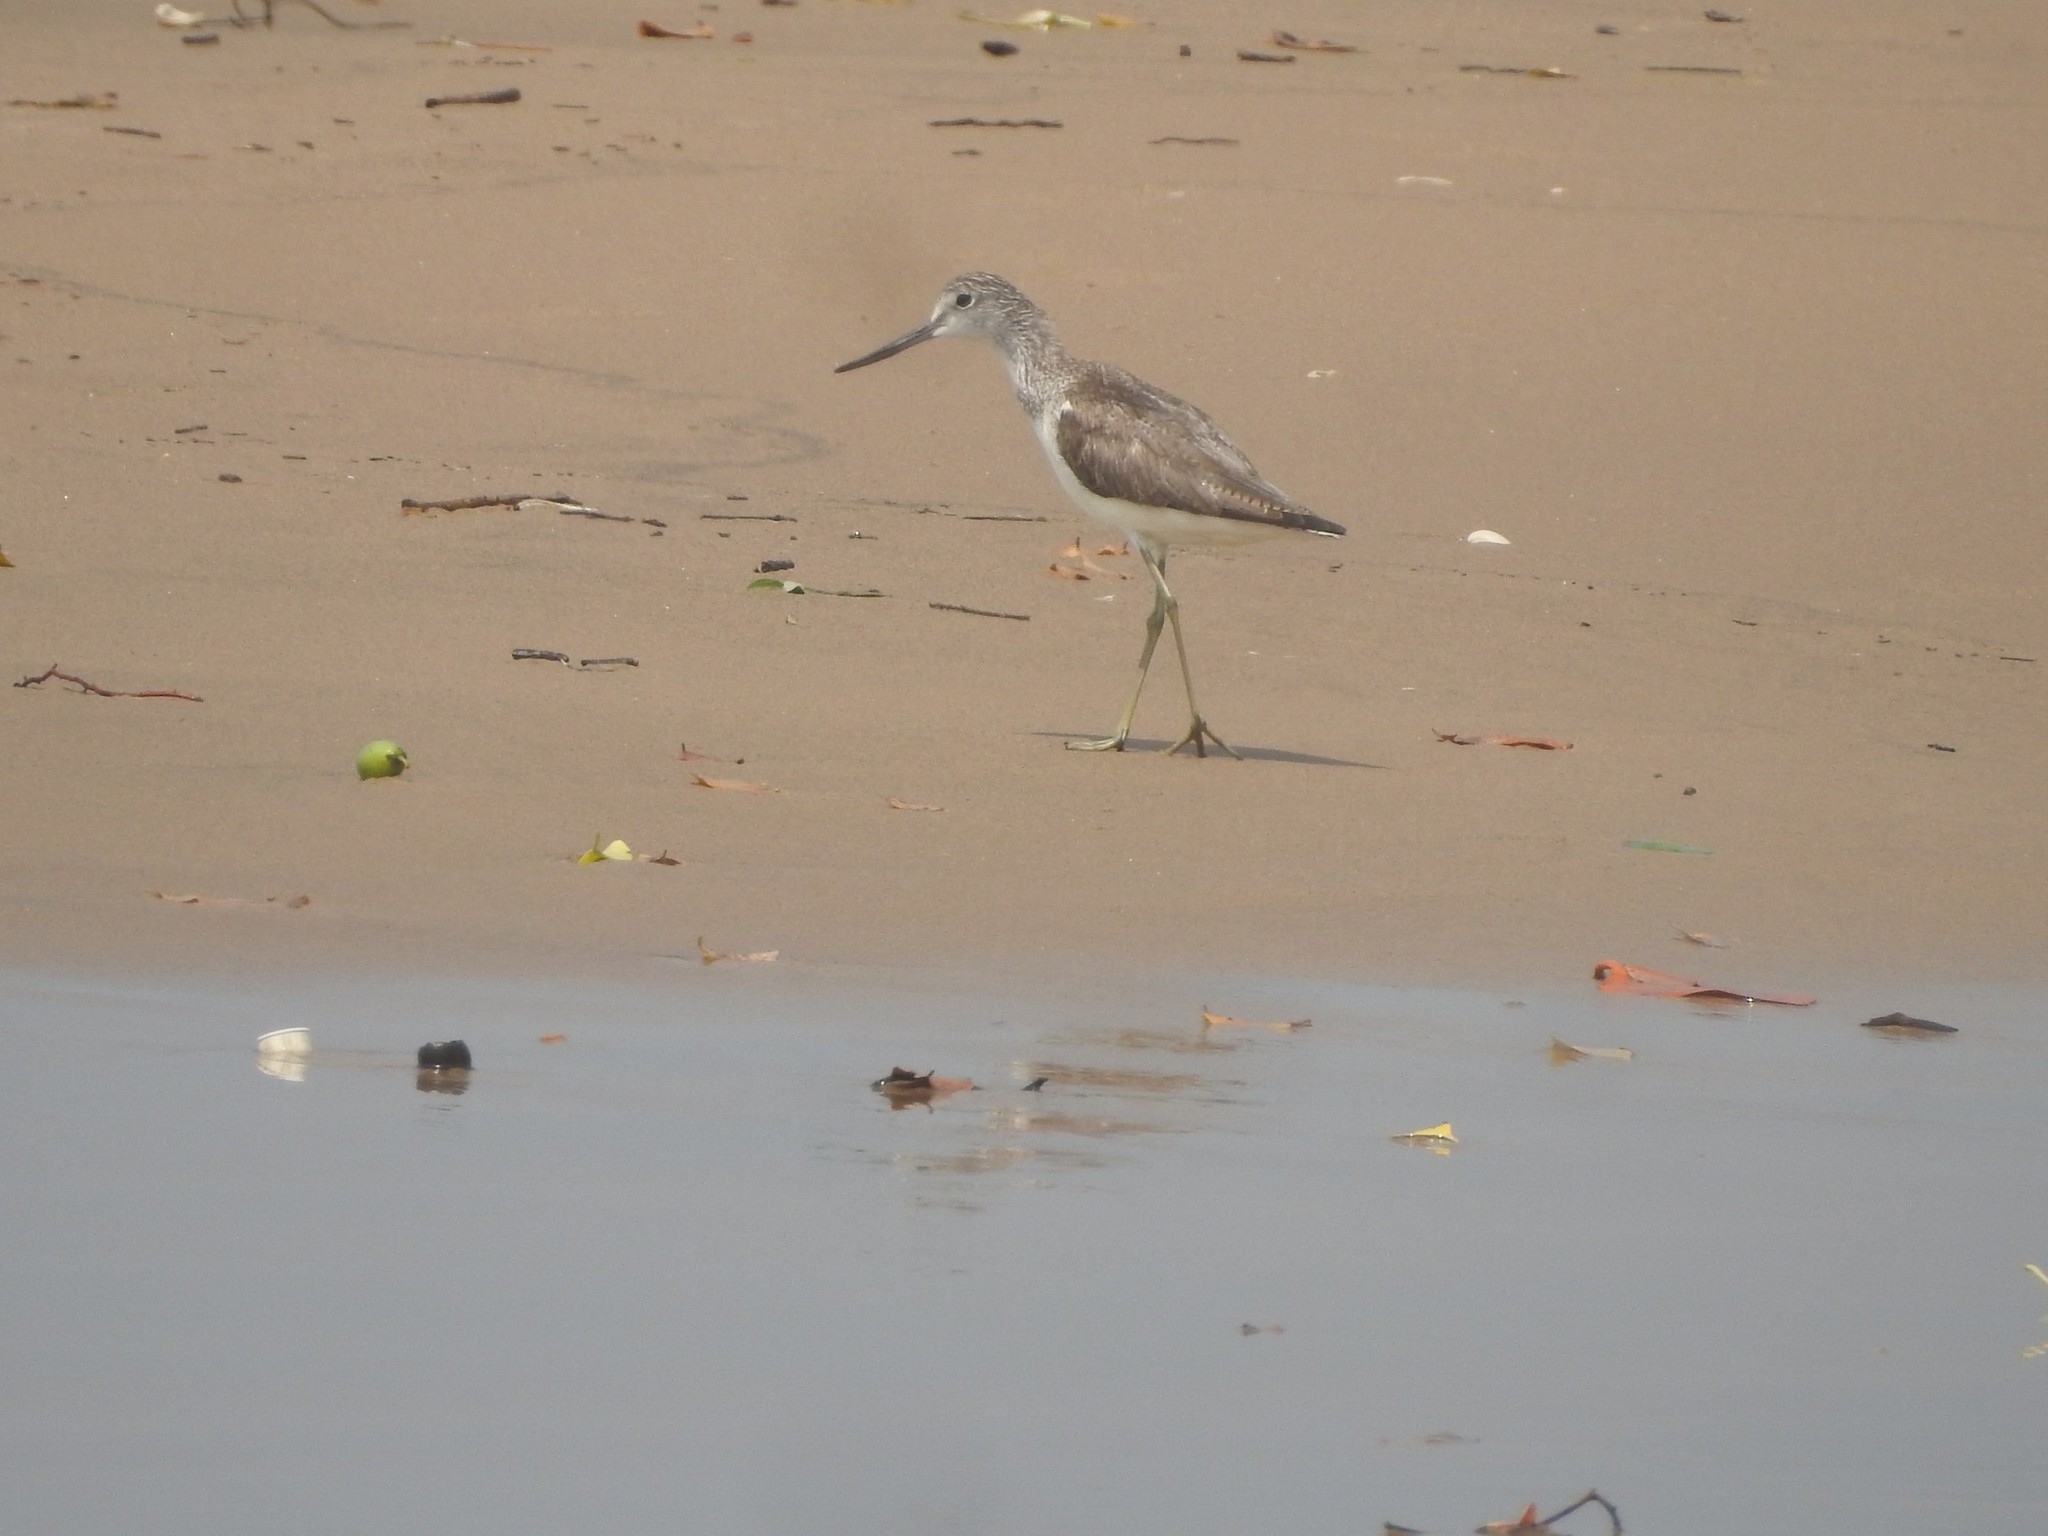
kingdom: Animalia
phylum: Chordata
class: Aves
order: Charadriiformes
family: Scolopacidae
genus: Tringa
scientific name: Tringa nebularia
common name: Common greenshank
